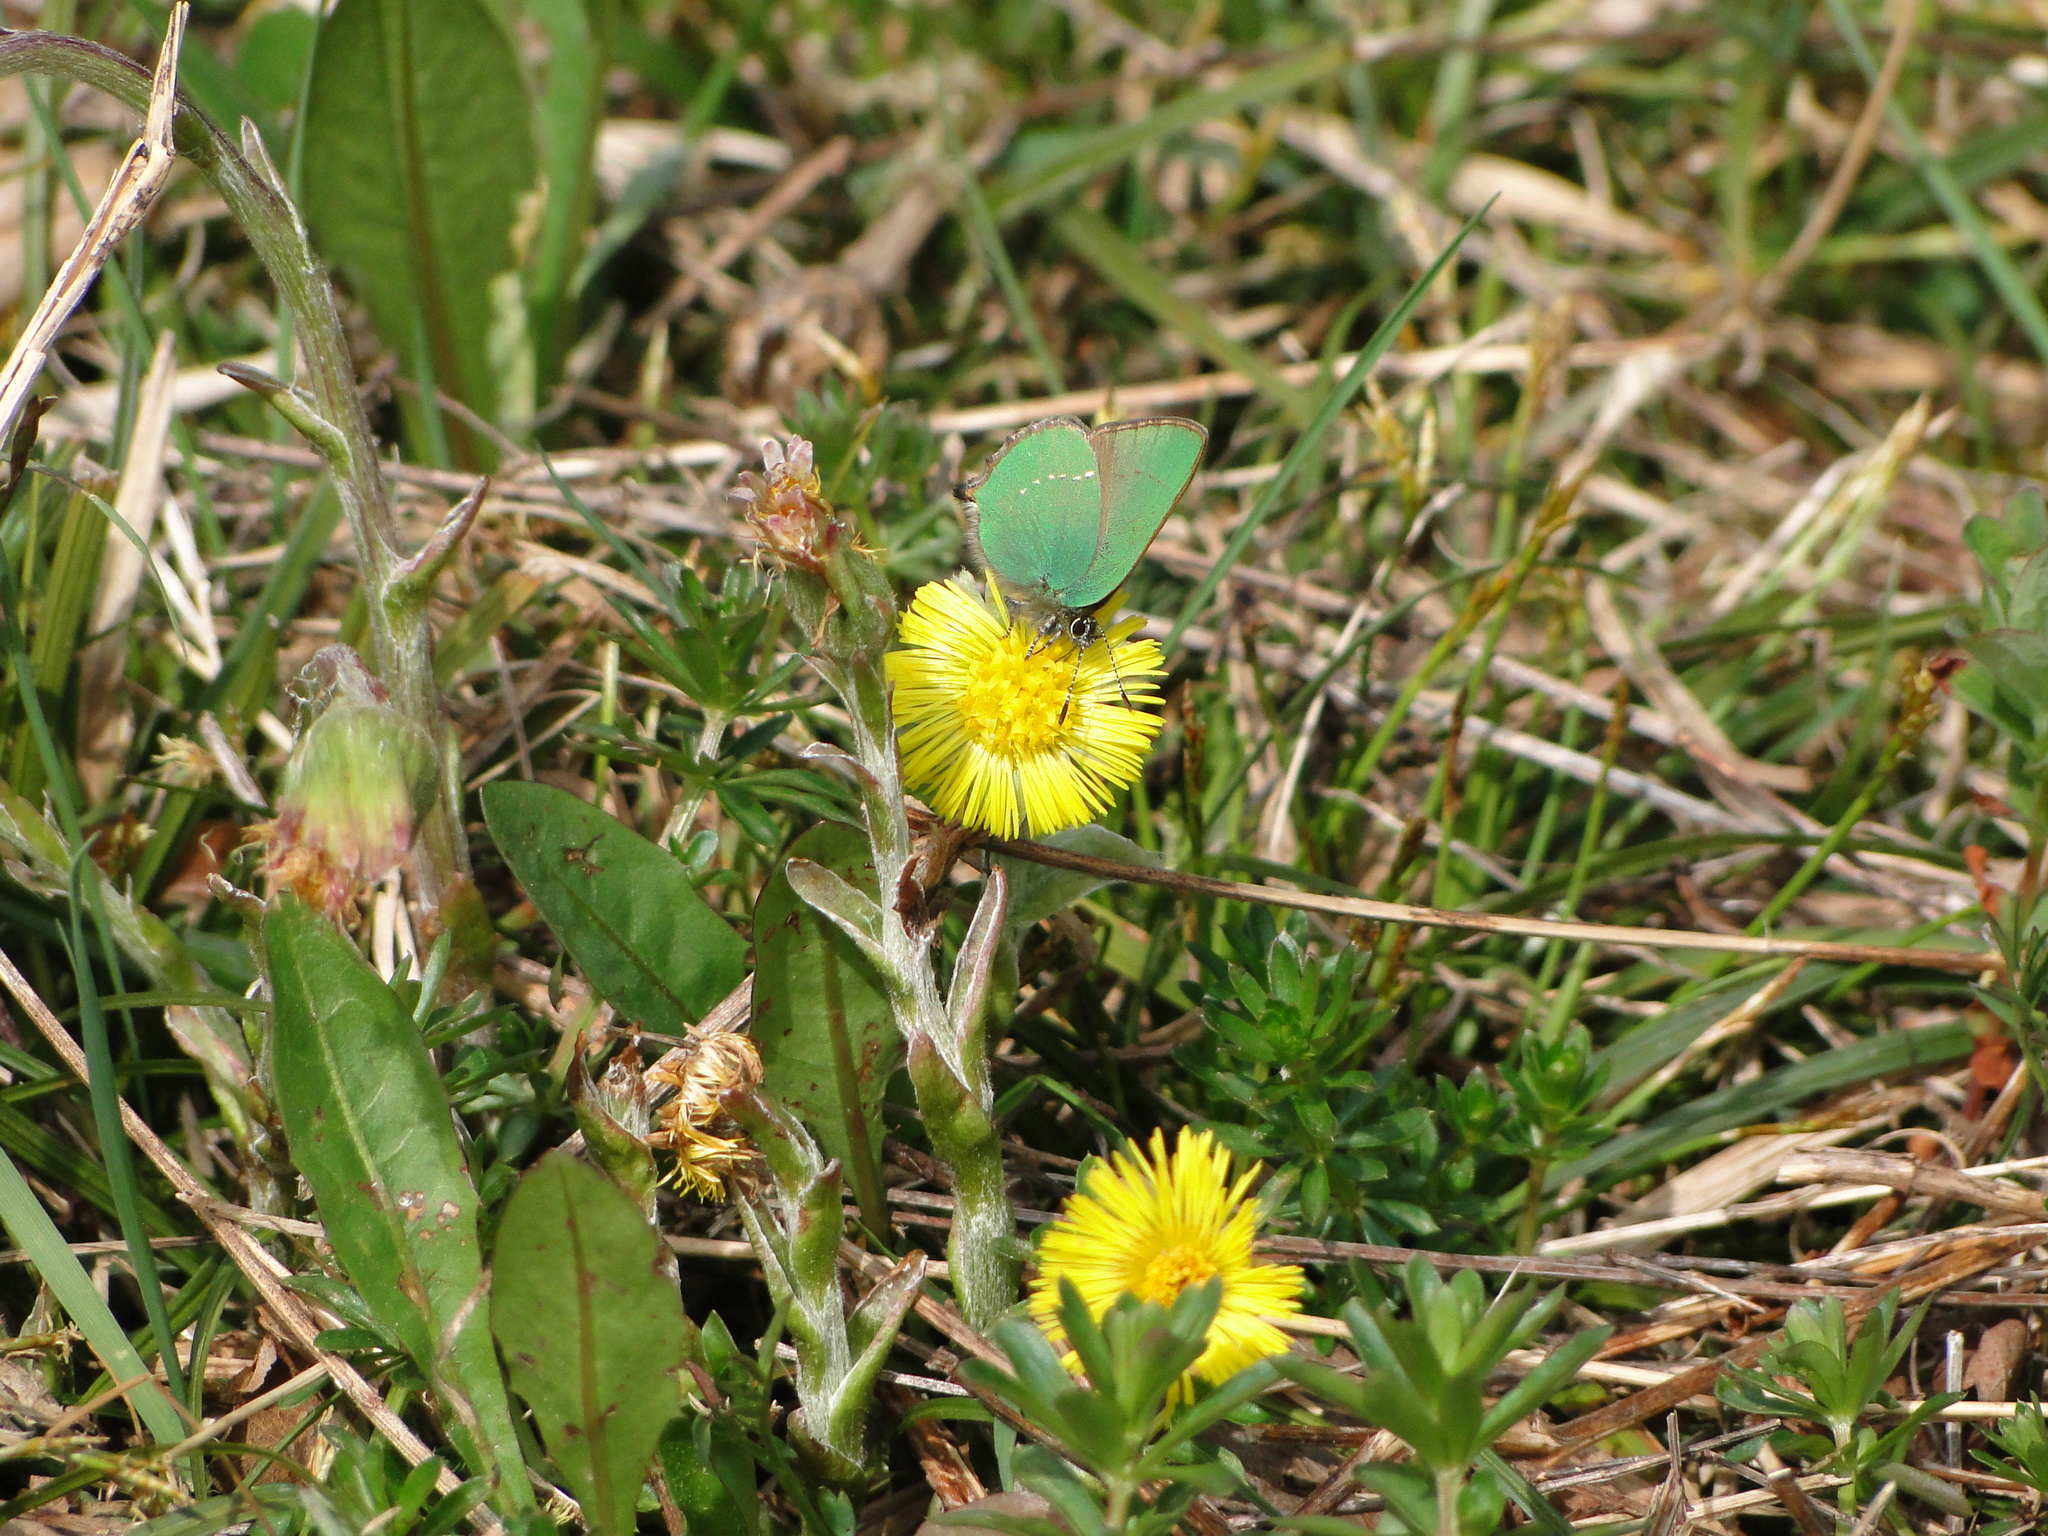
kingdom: Animalia
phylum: Arthropoda
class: Insecta
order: Lepidoptera
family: Lycaenidae
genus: Callophrys
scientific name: Callophrys rubi
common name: Green hairstreak
